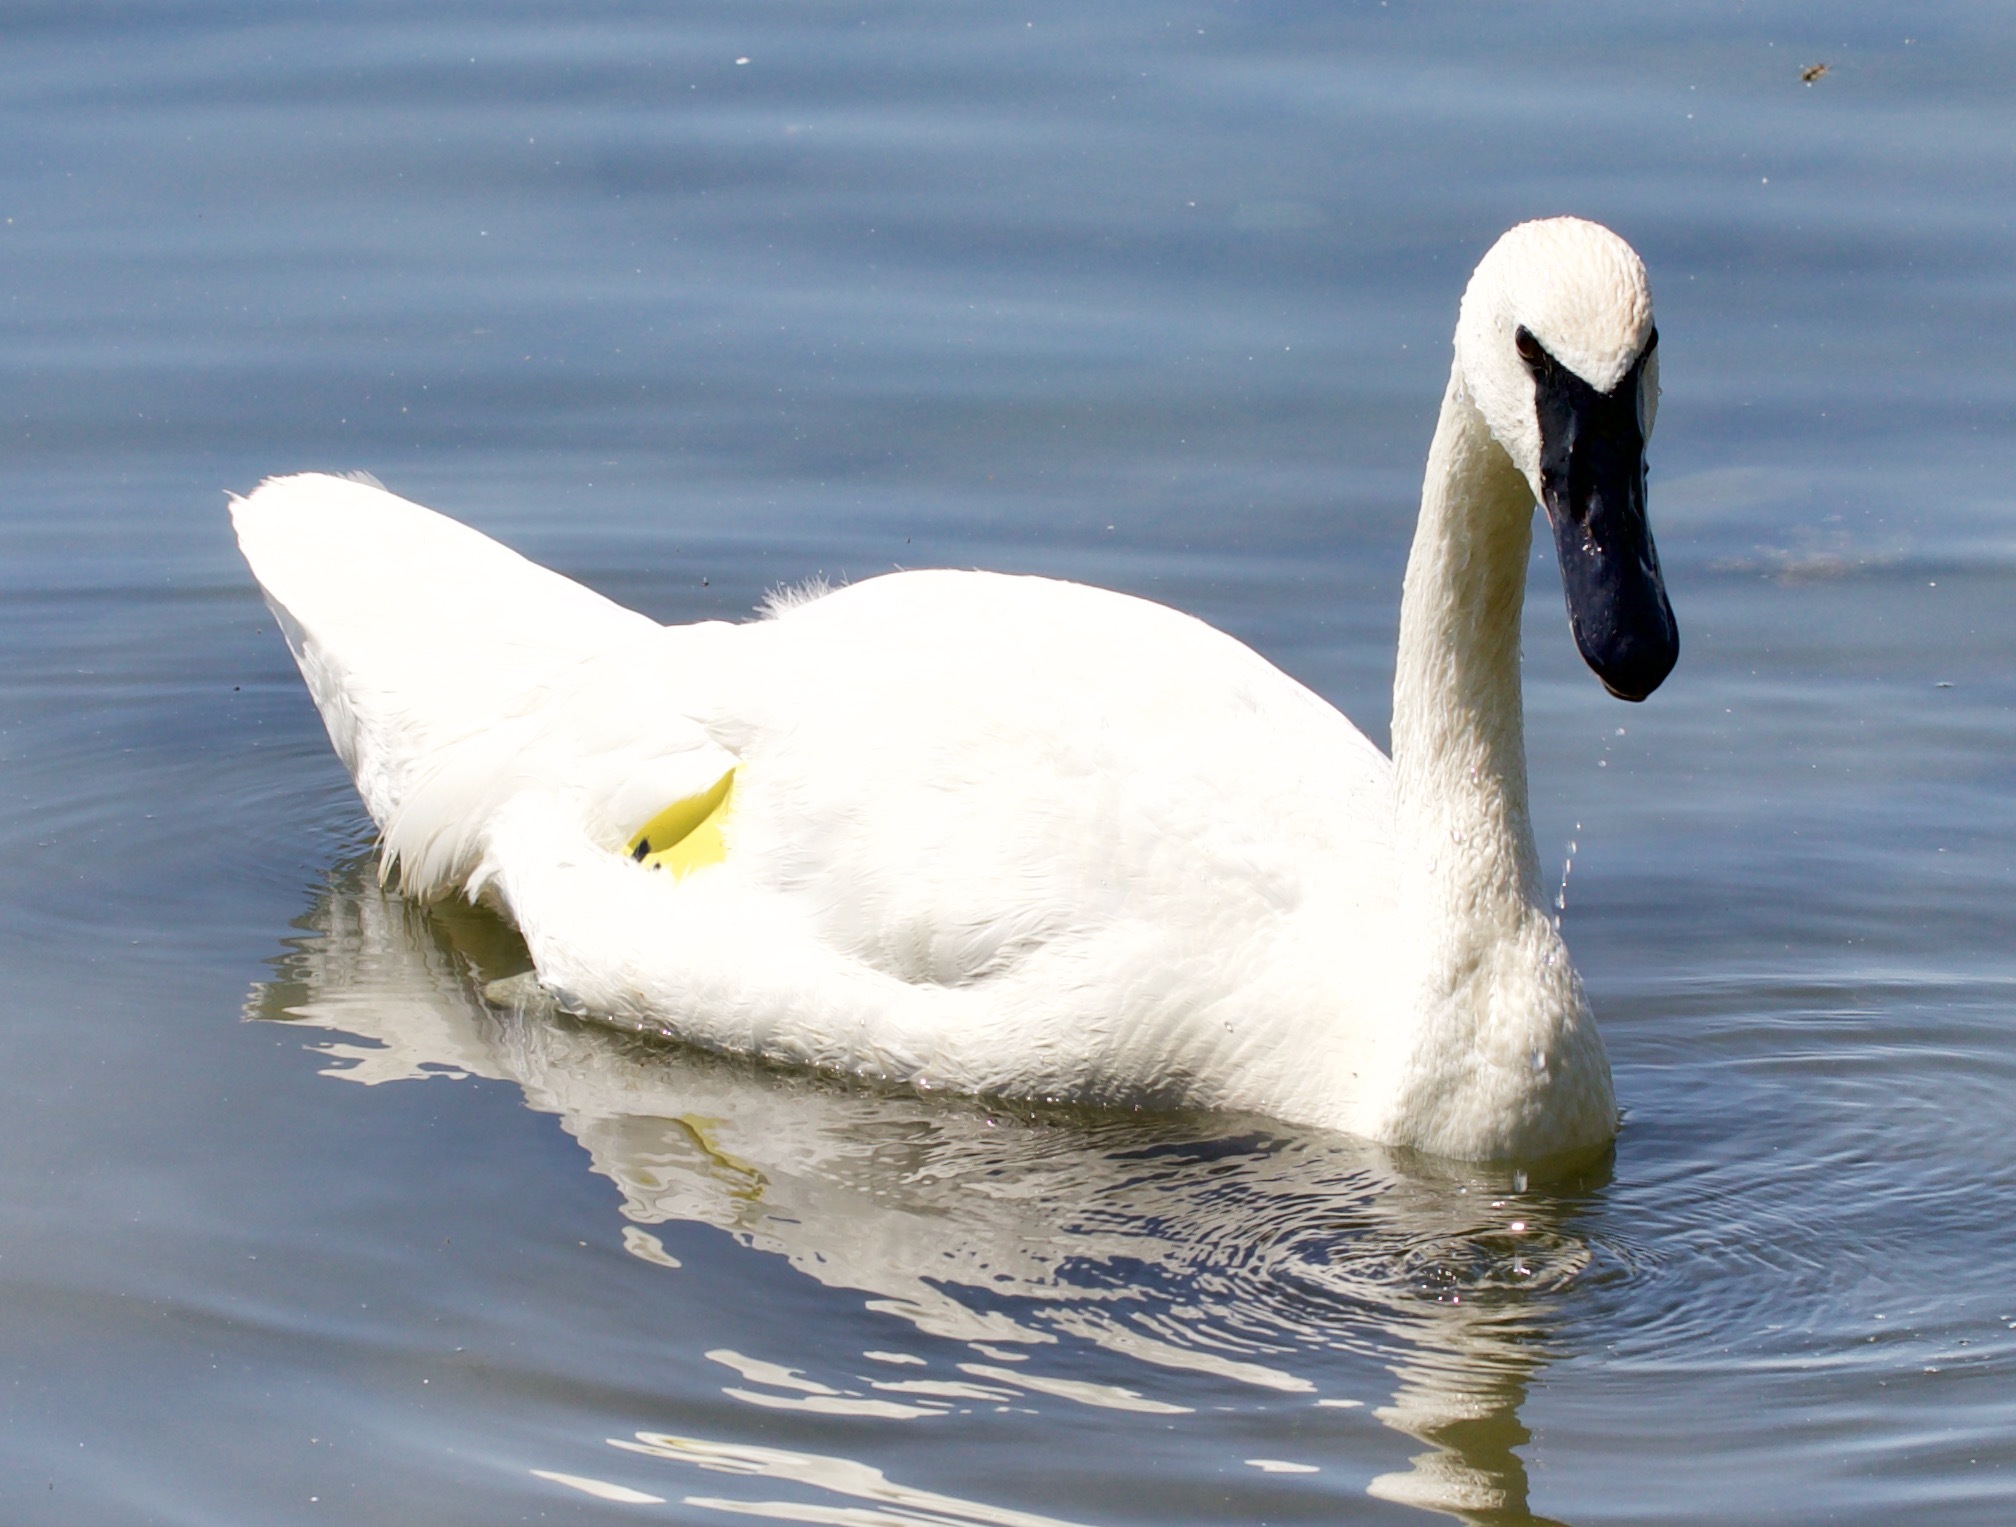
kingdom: Animalia
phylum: Chordata
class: Aves
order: Anseriformes
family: Anatidae
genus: Cygnus
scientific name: Cygnus buccinator
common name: Trumpeter swan
